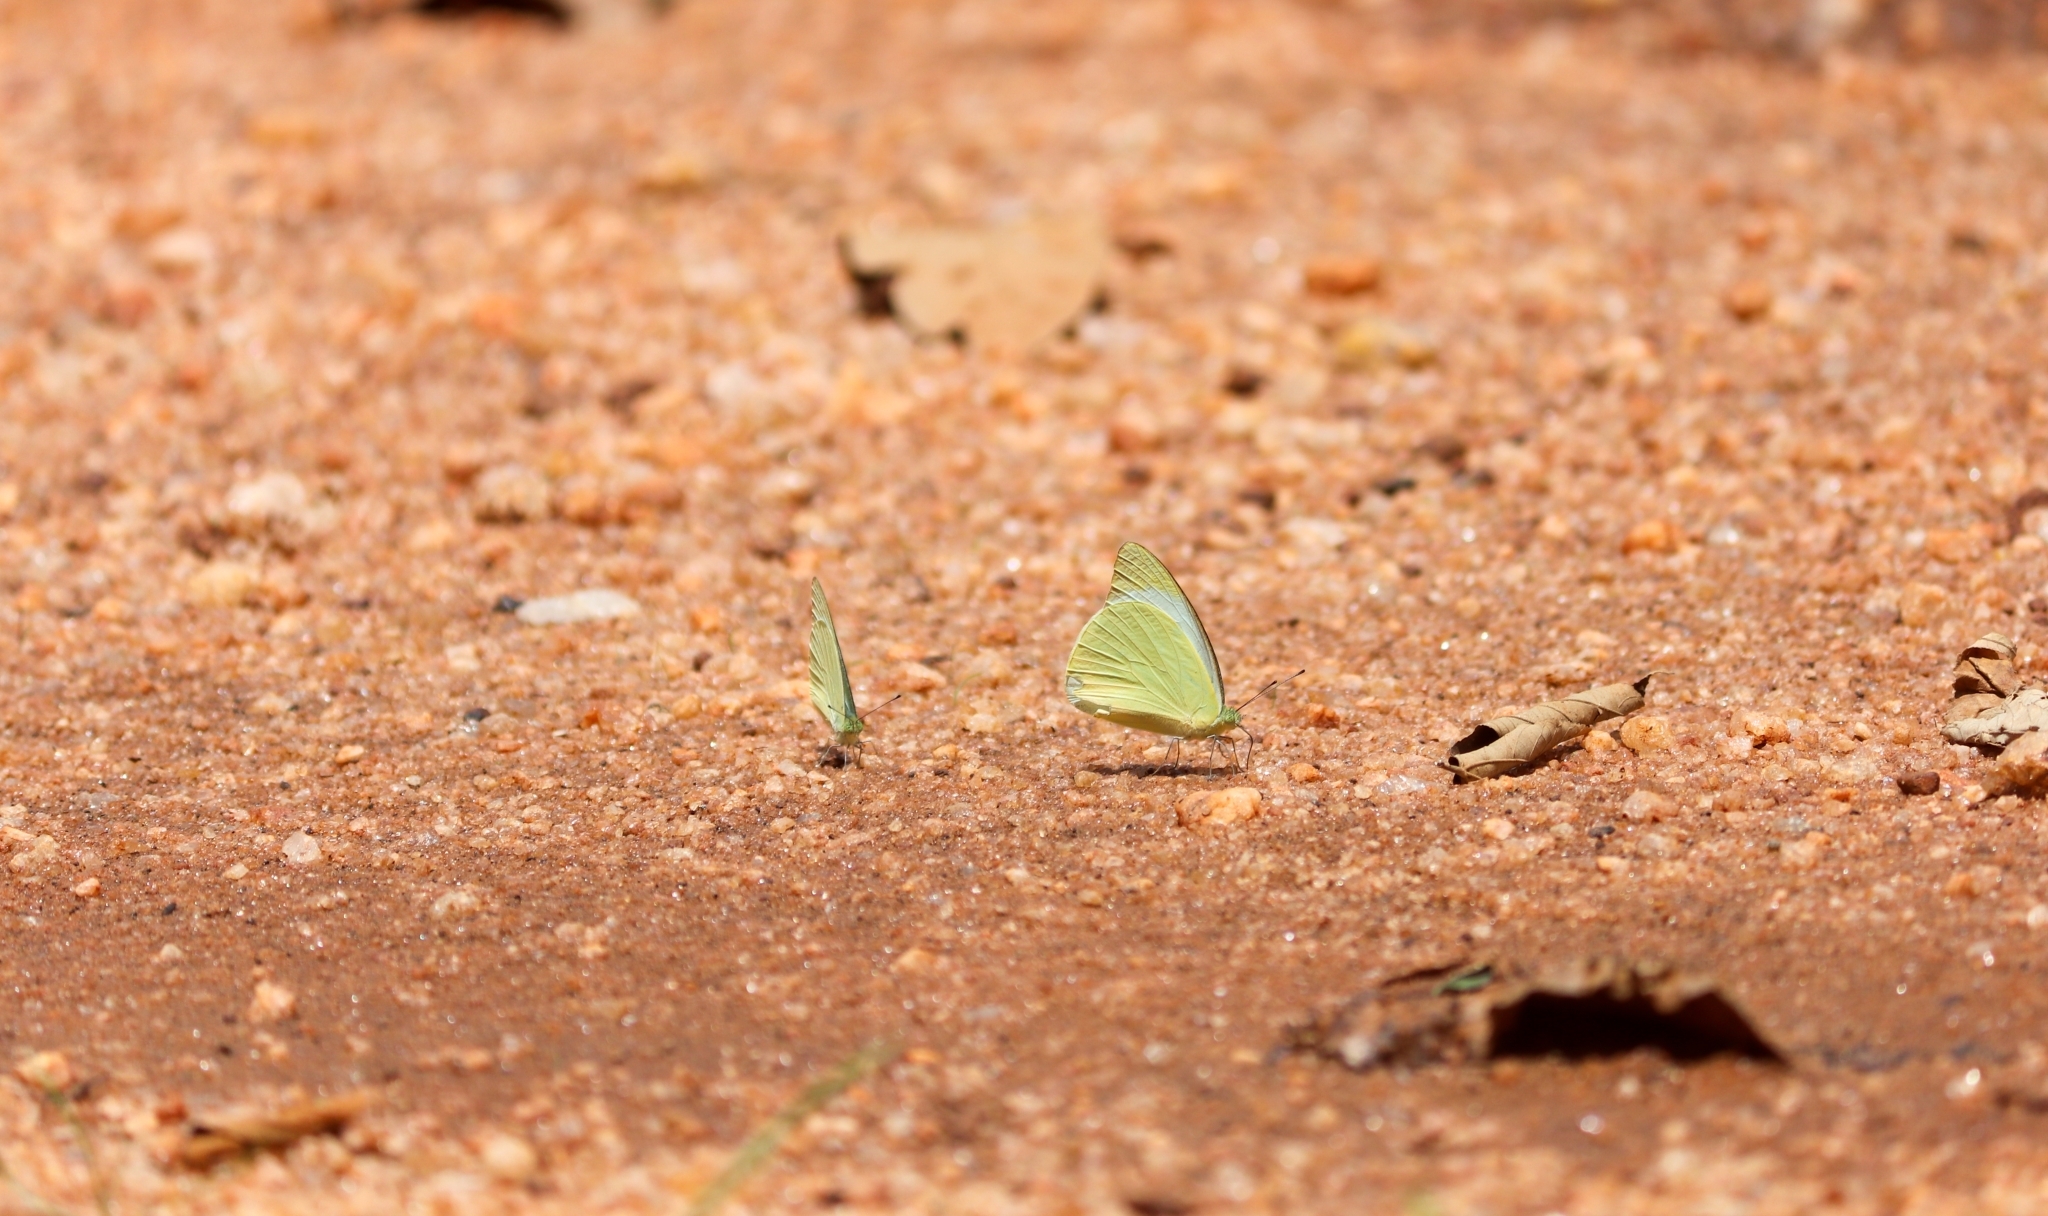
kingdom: Animalia
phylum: Arthropoda
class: Insecta
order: Lepidoptera
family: Pieridae
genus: Appias
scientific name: Appias galene
